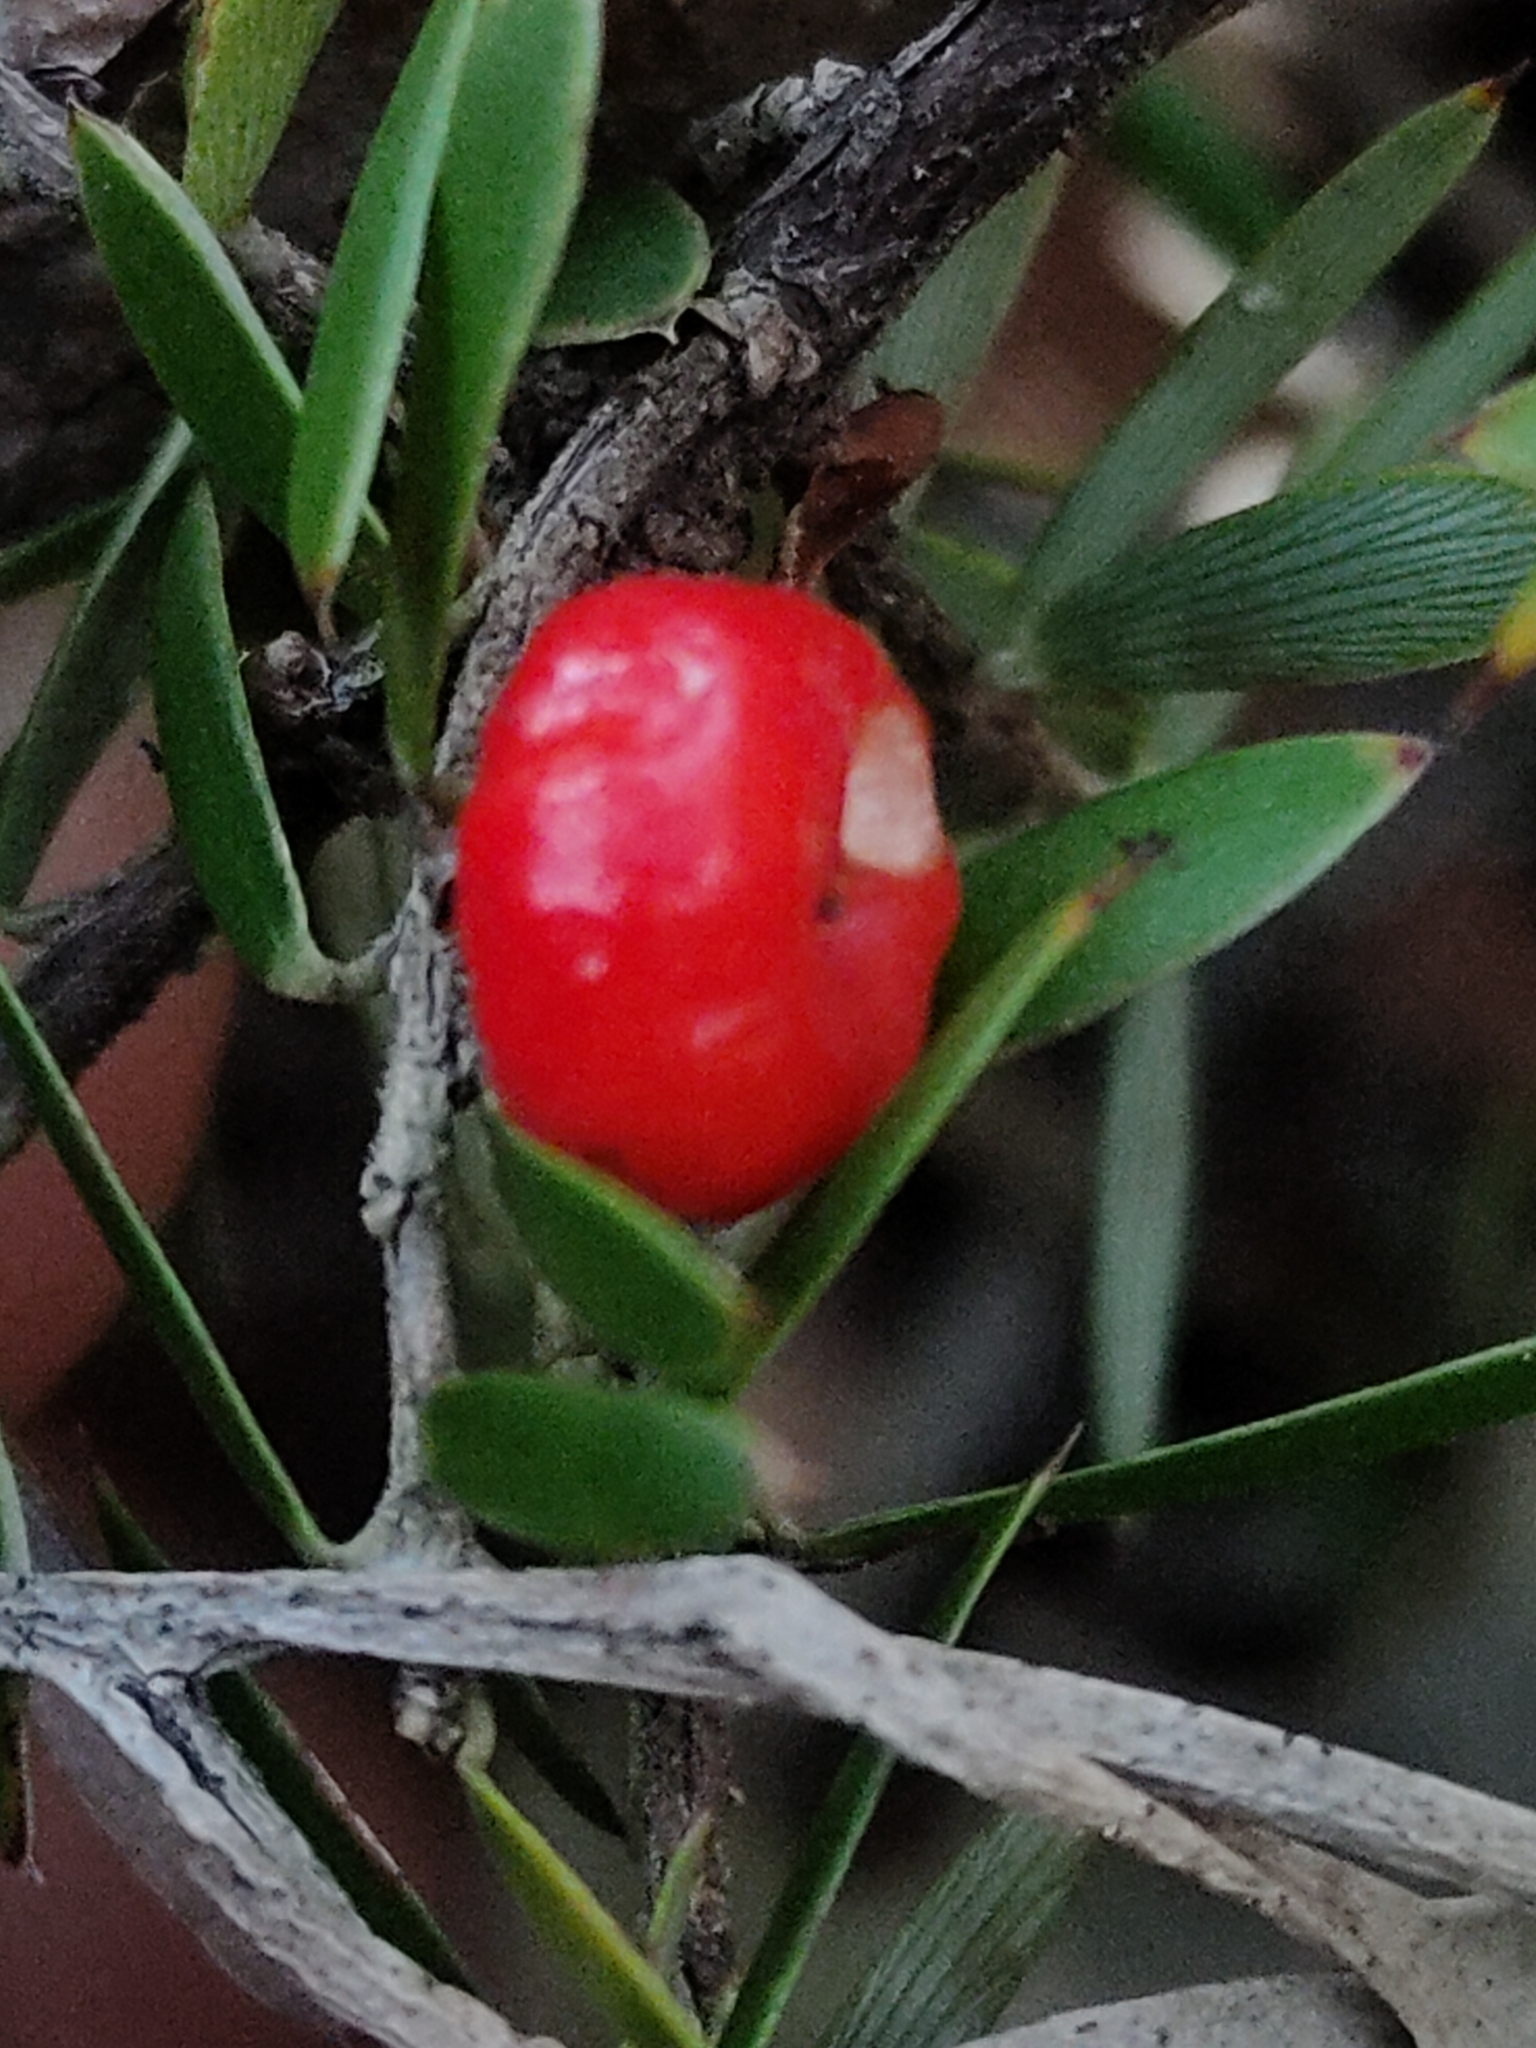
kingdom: Plantae
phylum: Tracheophyta
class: Magnoliopsida
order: Ericales
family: Ericaceae
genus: Acrotriche
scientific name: Acrotriche aggregata
